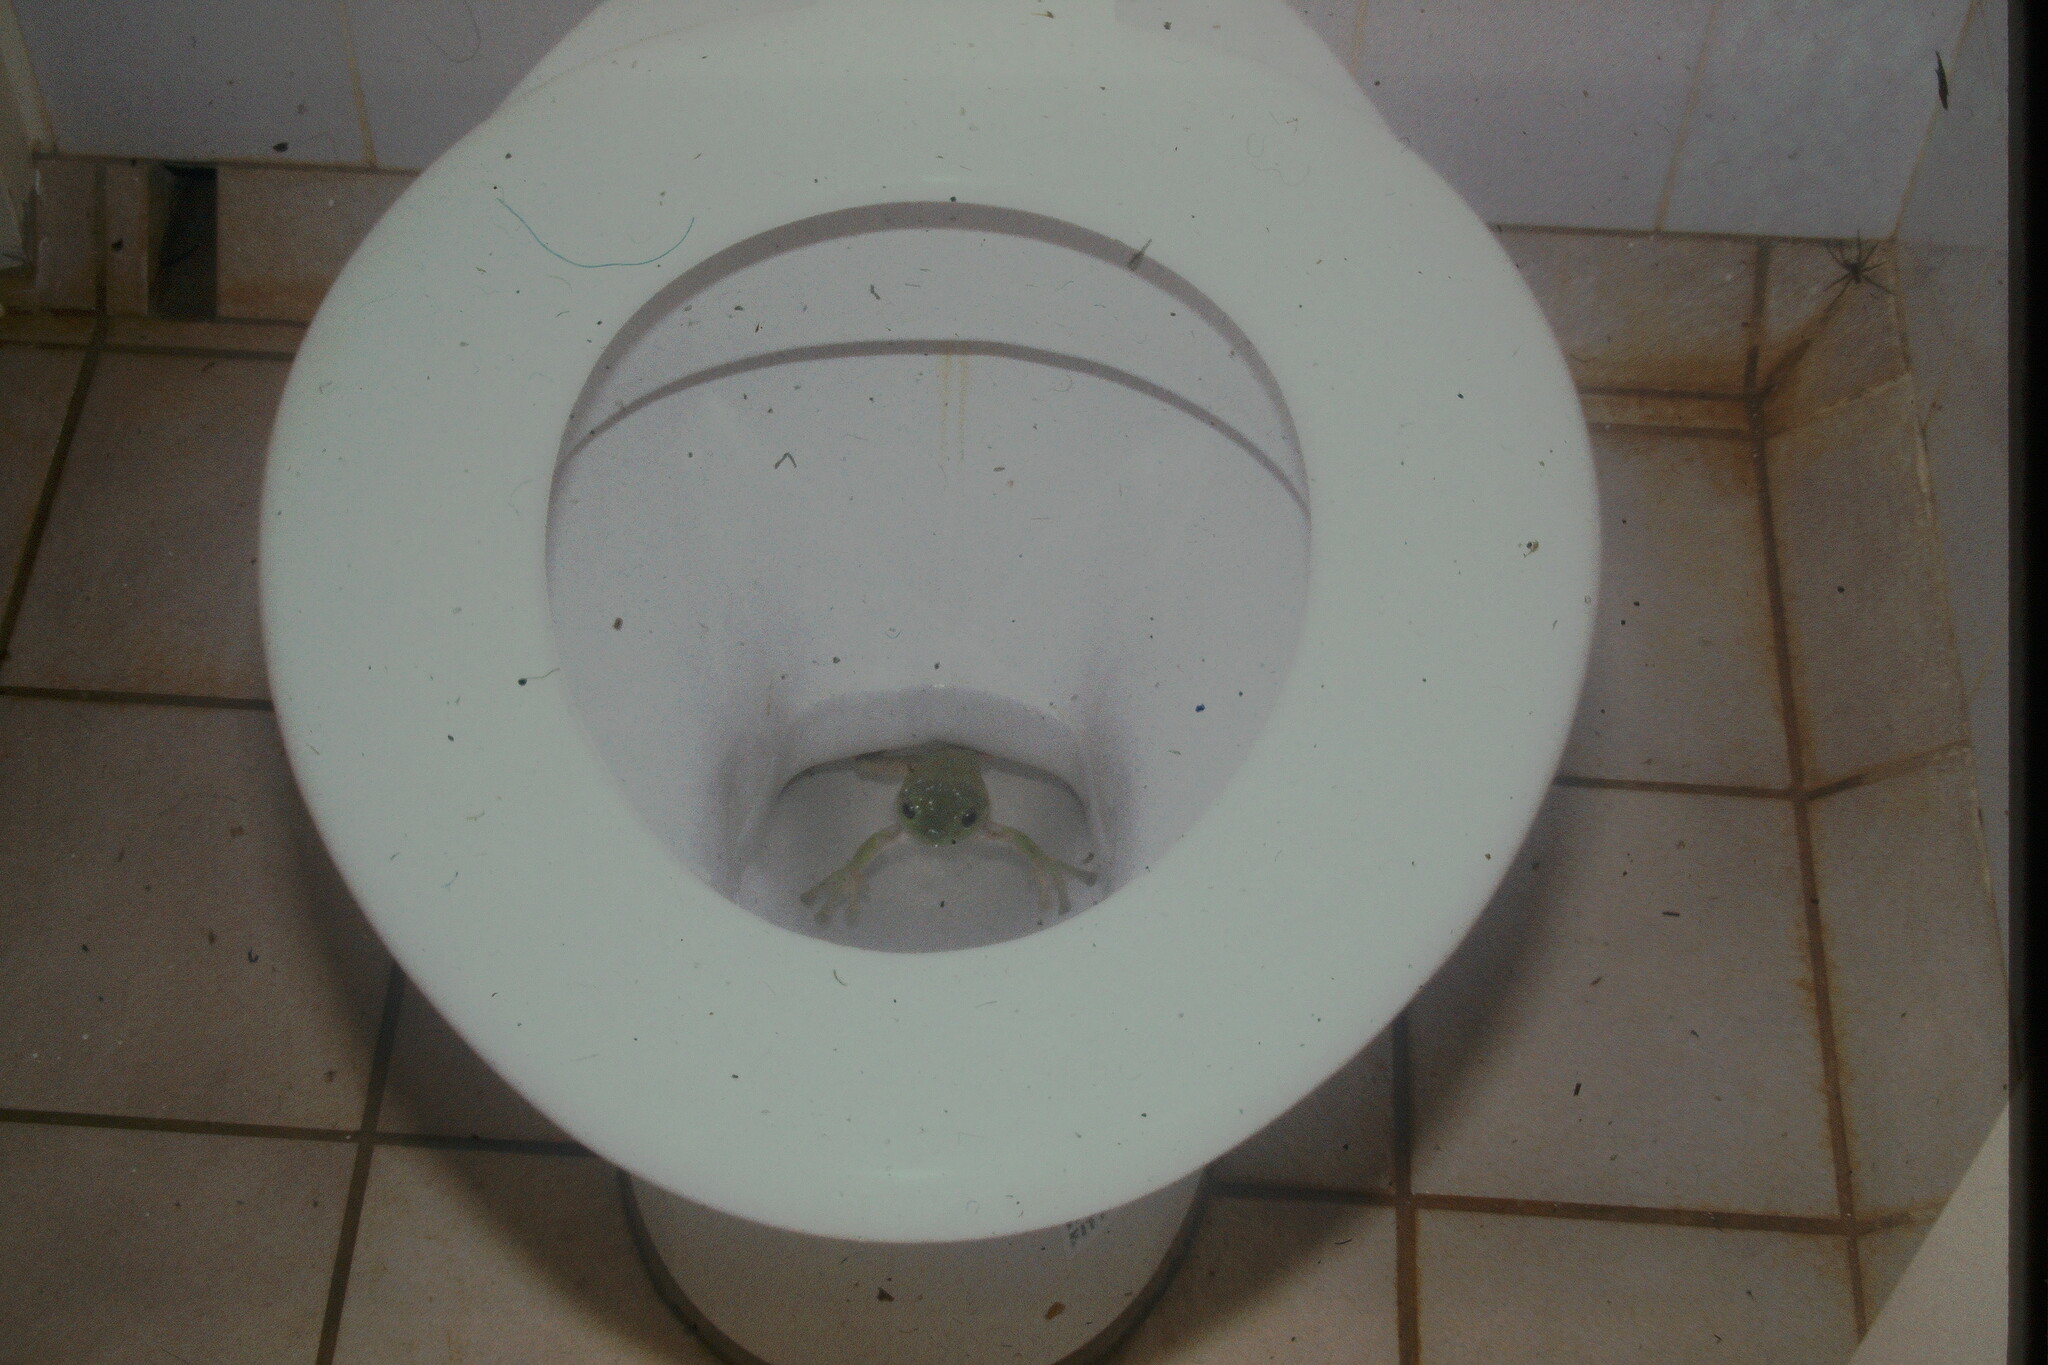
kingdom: Animalia
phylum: Chordata
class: Amphibia
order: Anura
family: Pelodryadidae
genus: Ranoidea
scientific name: Ranoidea caerulea
